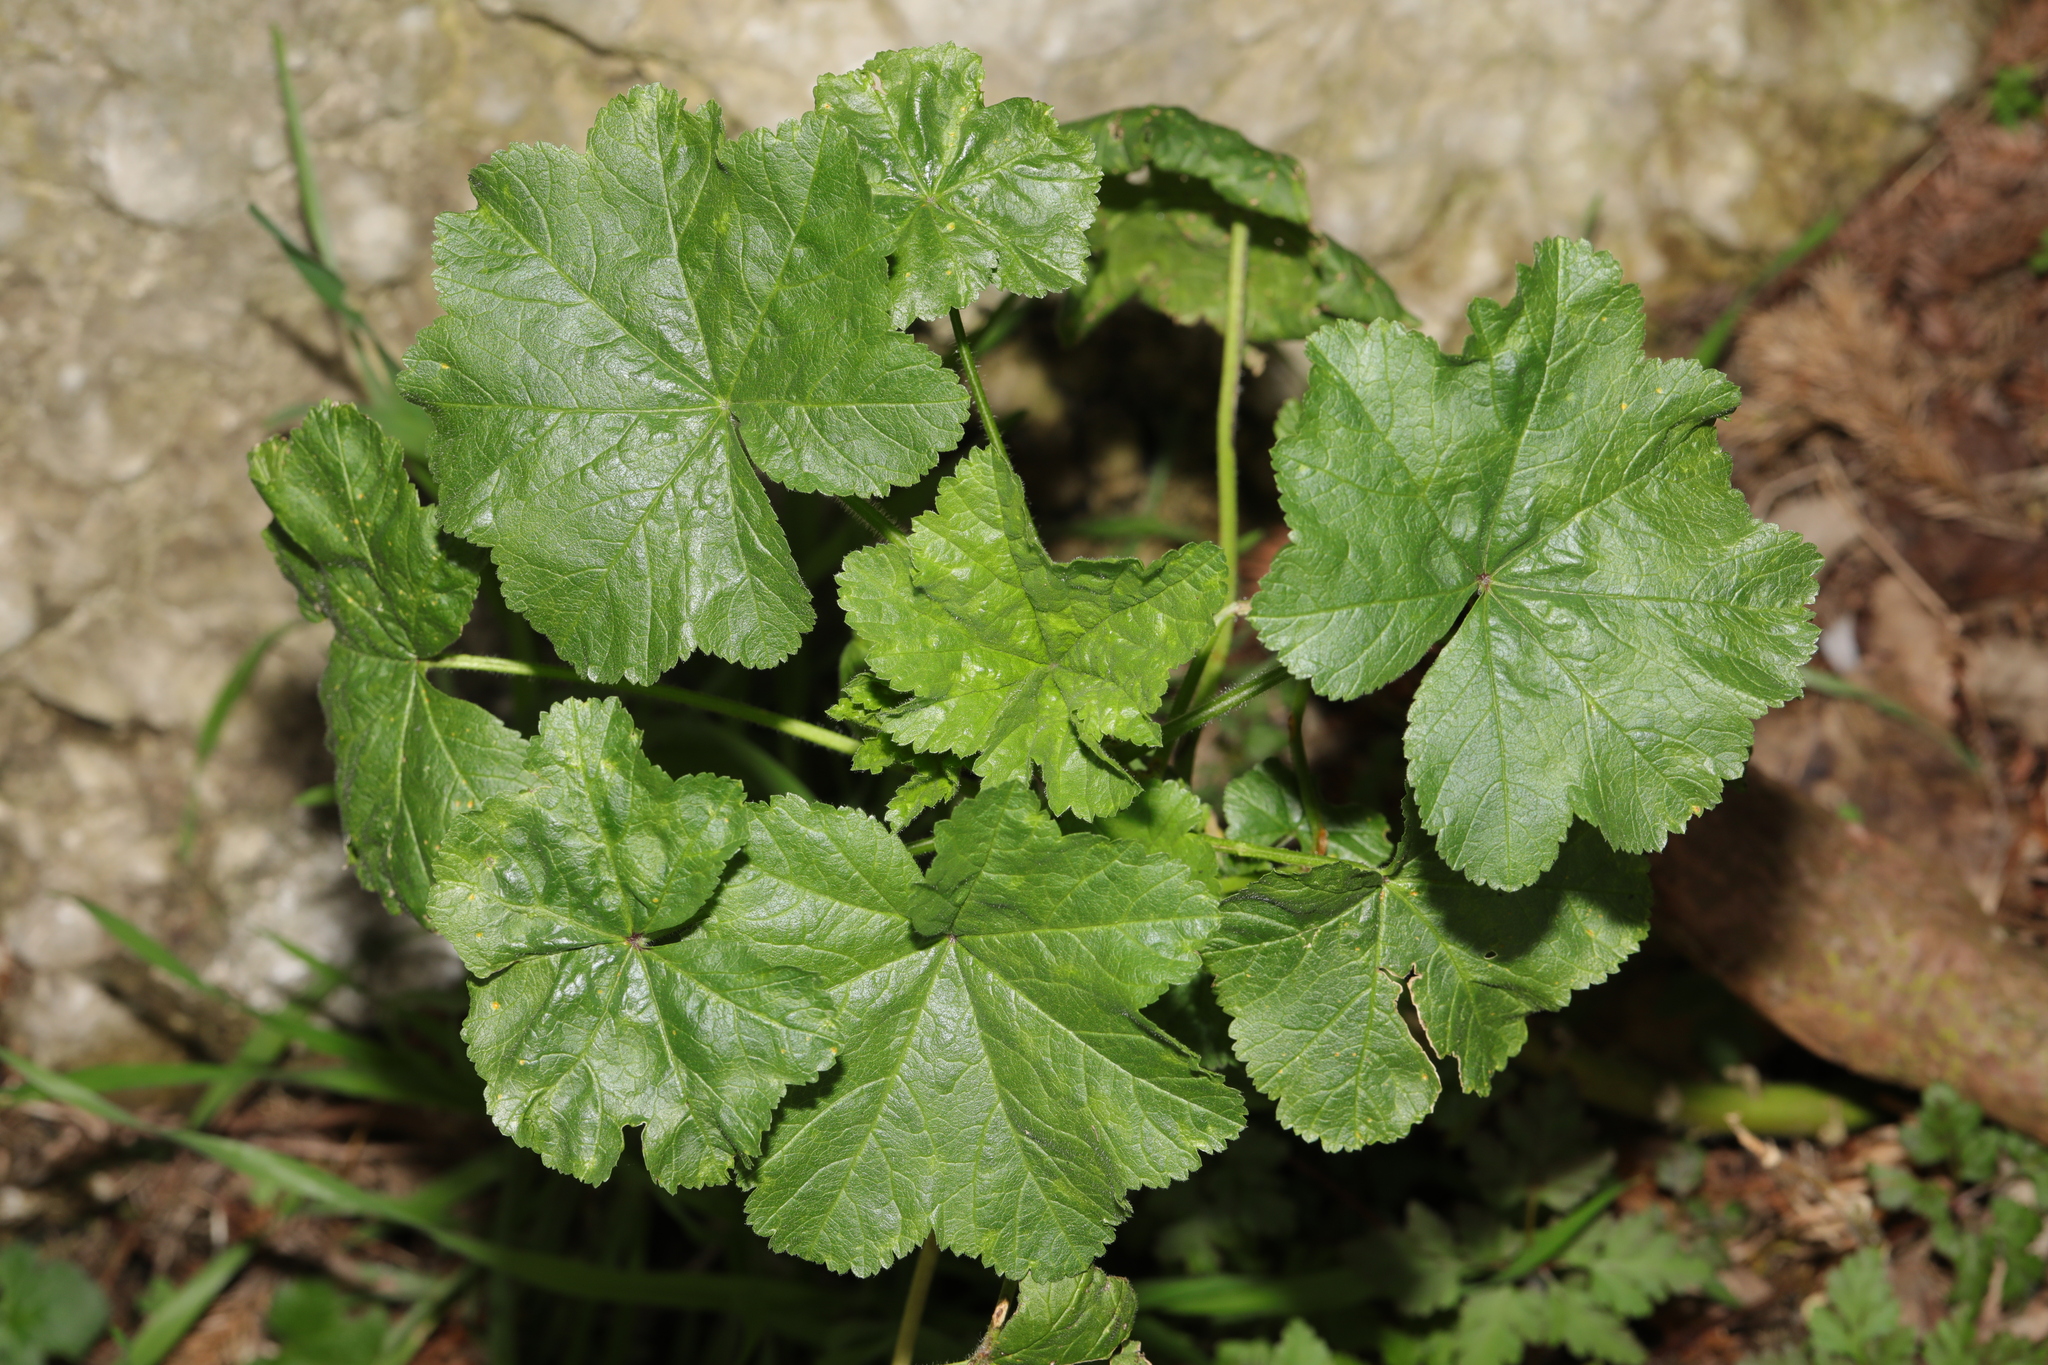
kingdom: Plantae
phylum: Tracheophyta
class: Magnoliopsida
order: Malvales
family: Malvaceae
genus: Malva
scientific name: Malva sylvestris
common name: Common mallow
